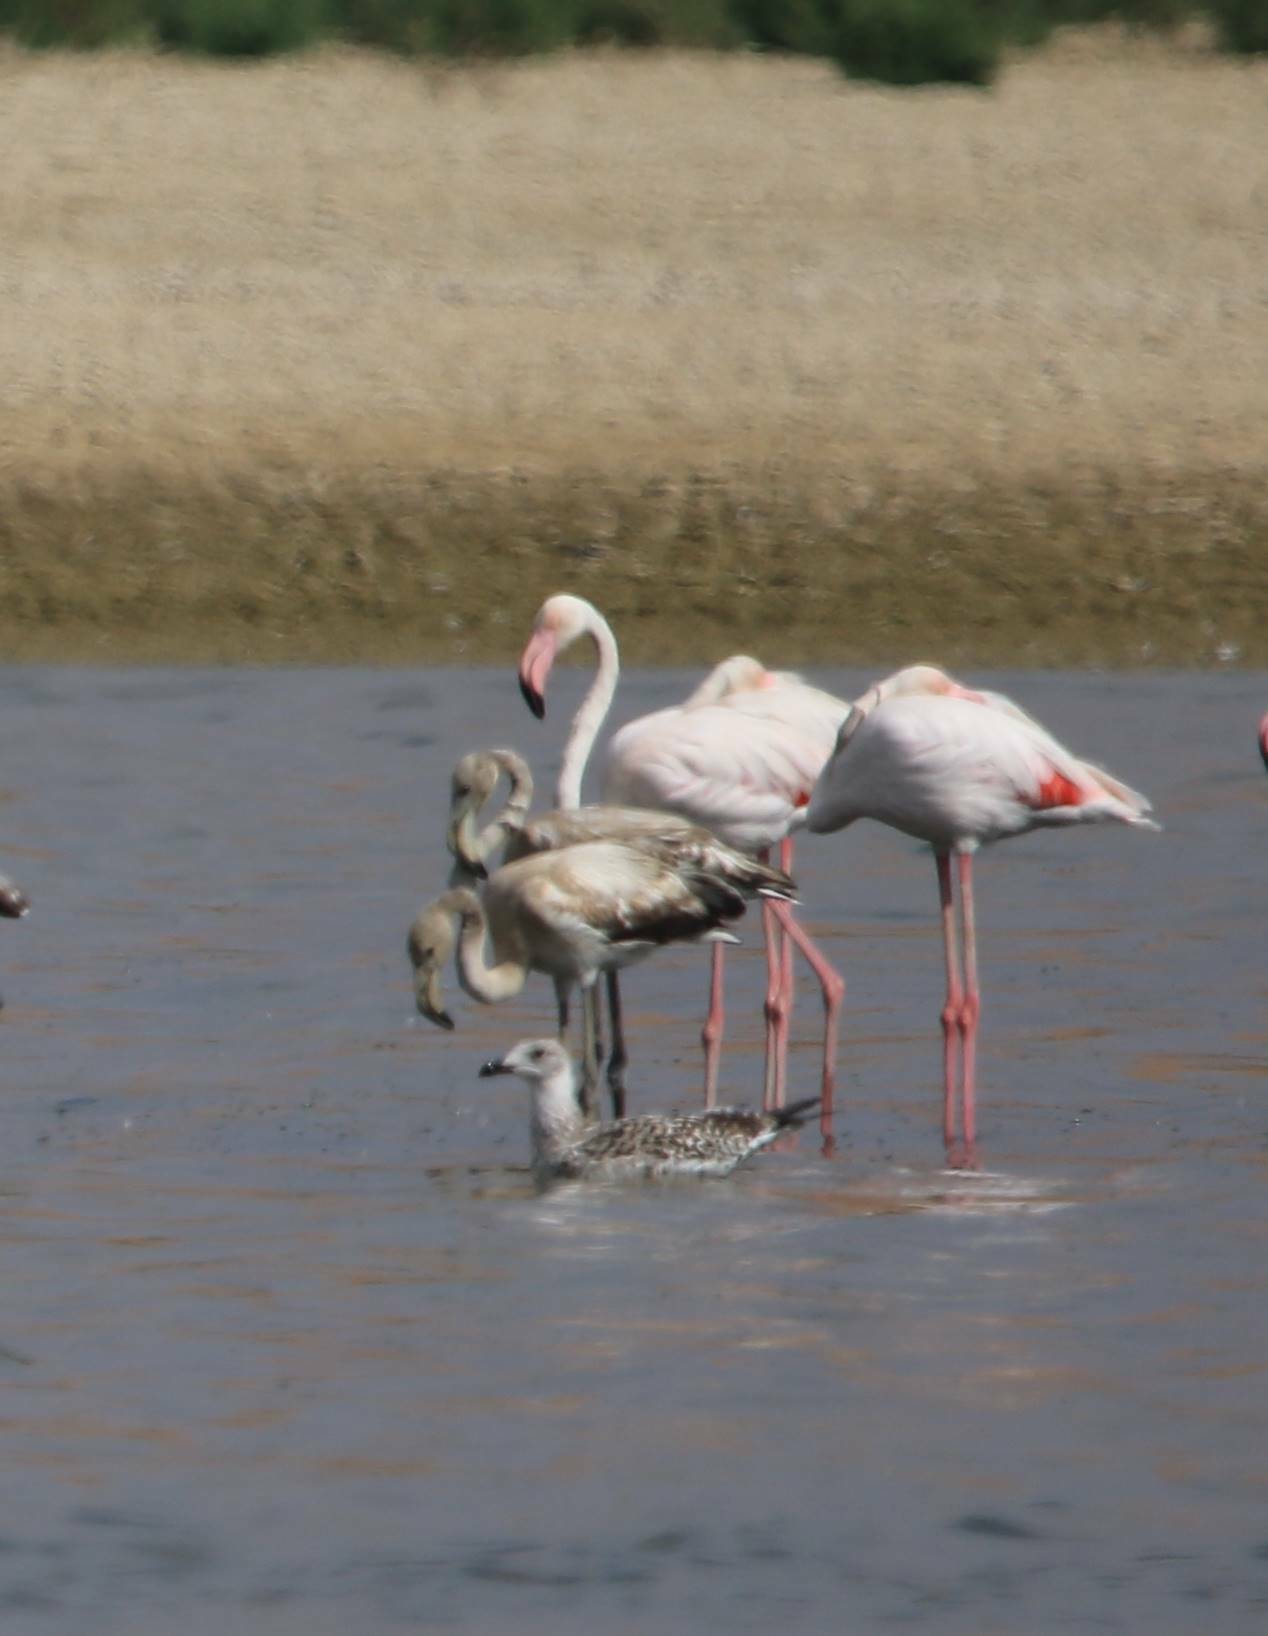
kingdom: Animalia
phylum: Chordata
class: Aves
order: Phoenicopteriformes
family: Phoenicopteridae
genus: Phoenicopterus
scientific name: Phoenicopterus roseus
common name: Greater flamingo
